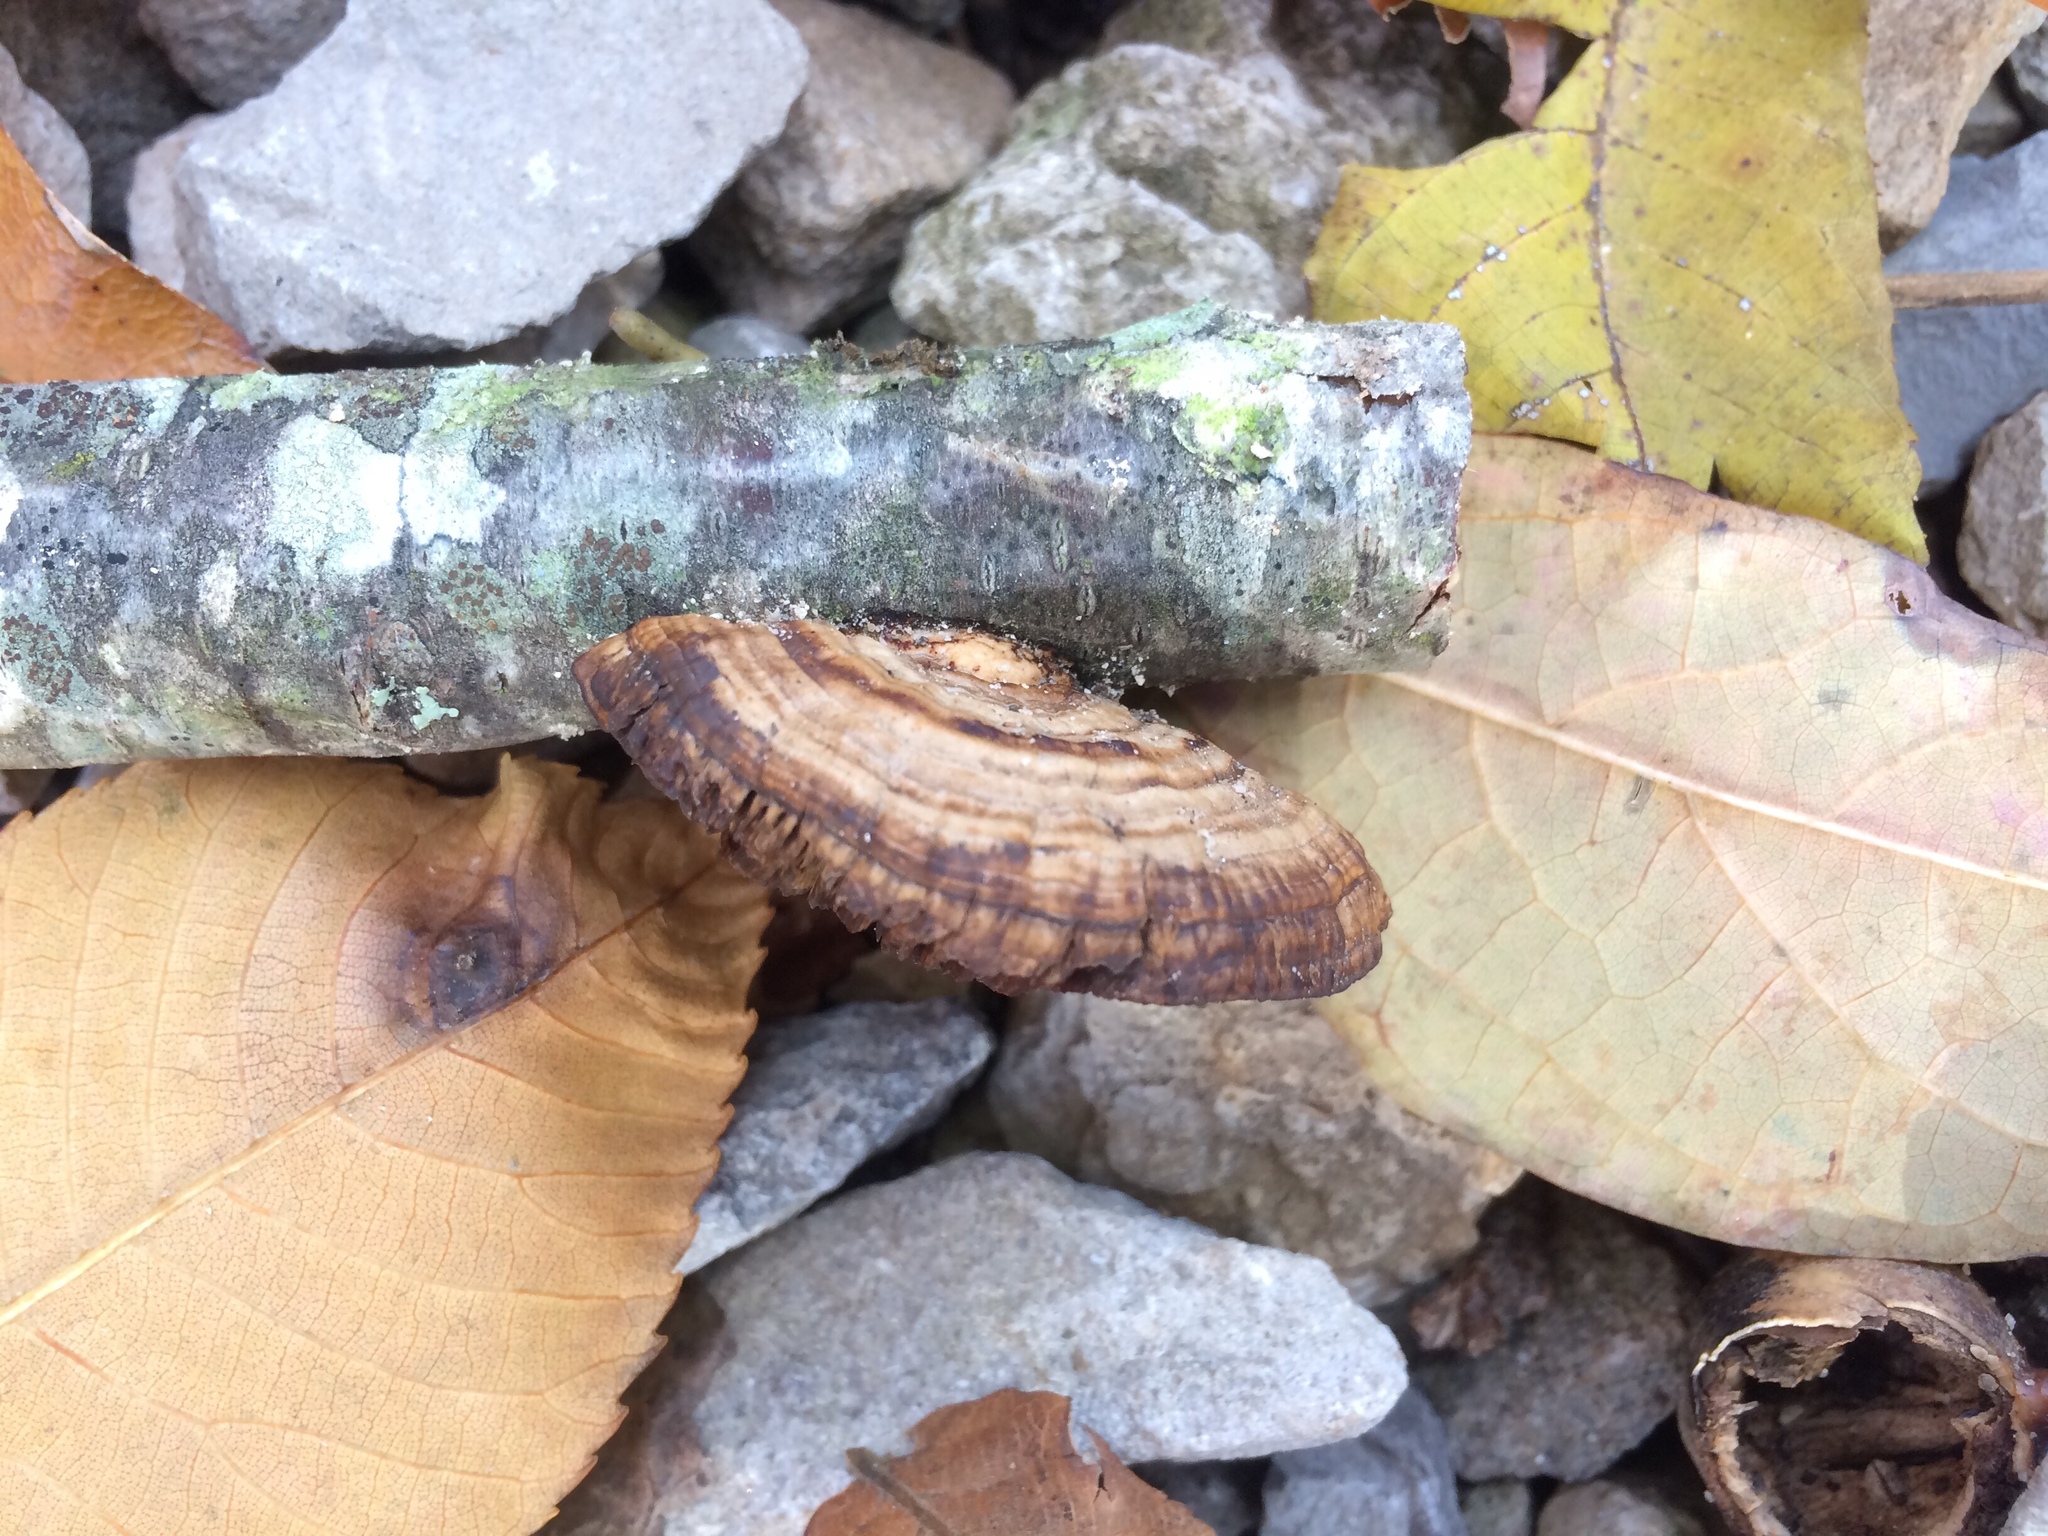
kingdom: Fungi
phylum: Basidiomycota
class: Agaricomycetes
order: Polyporales
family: Polyporaceae
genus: Daedaleopsis
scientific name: Daedaleopsis septentrionalis
